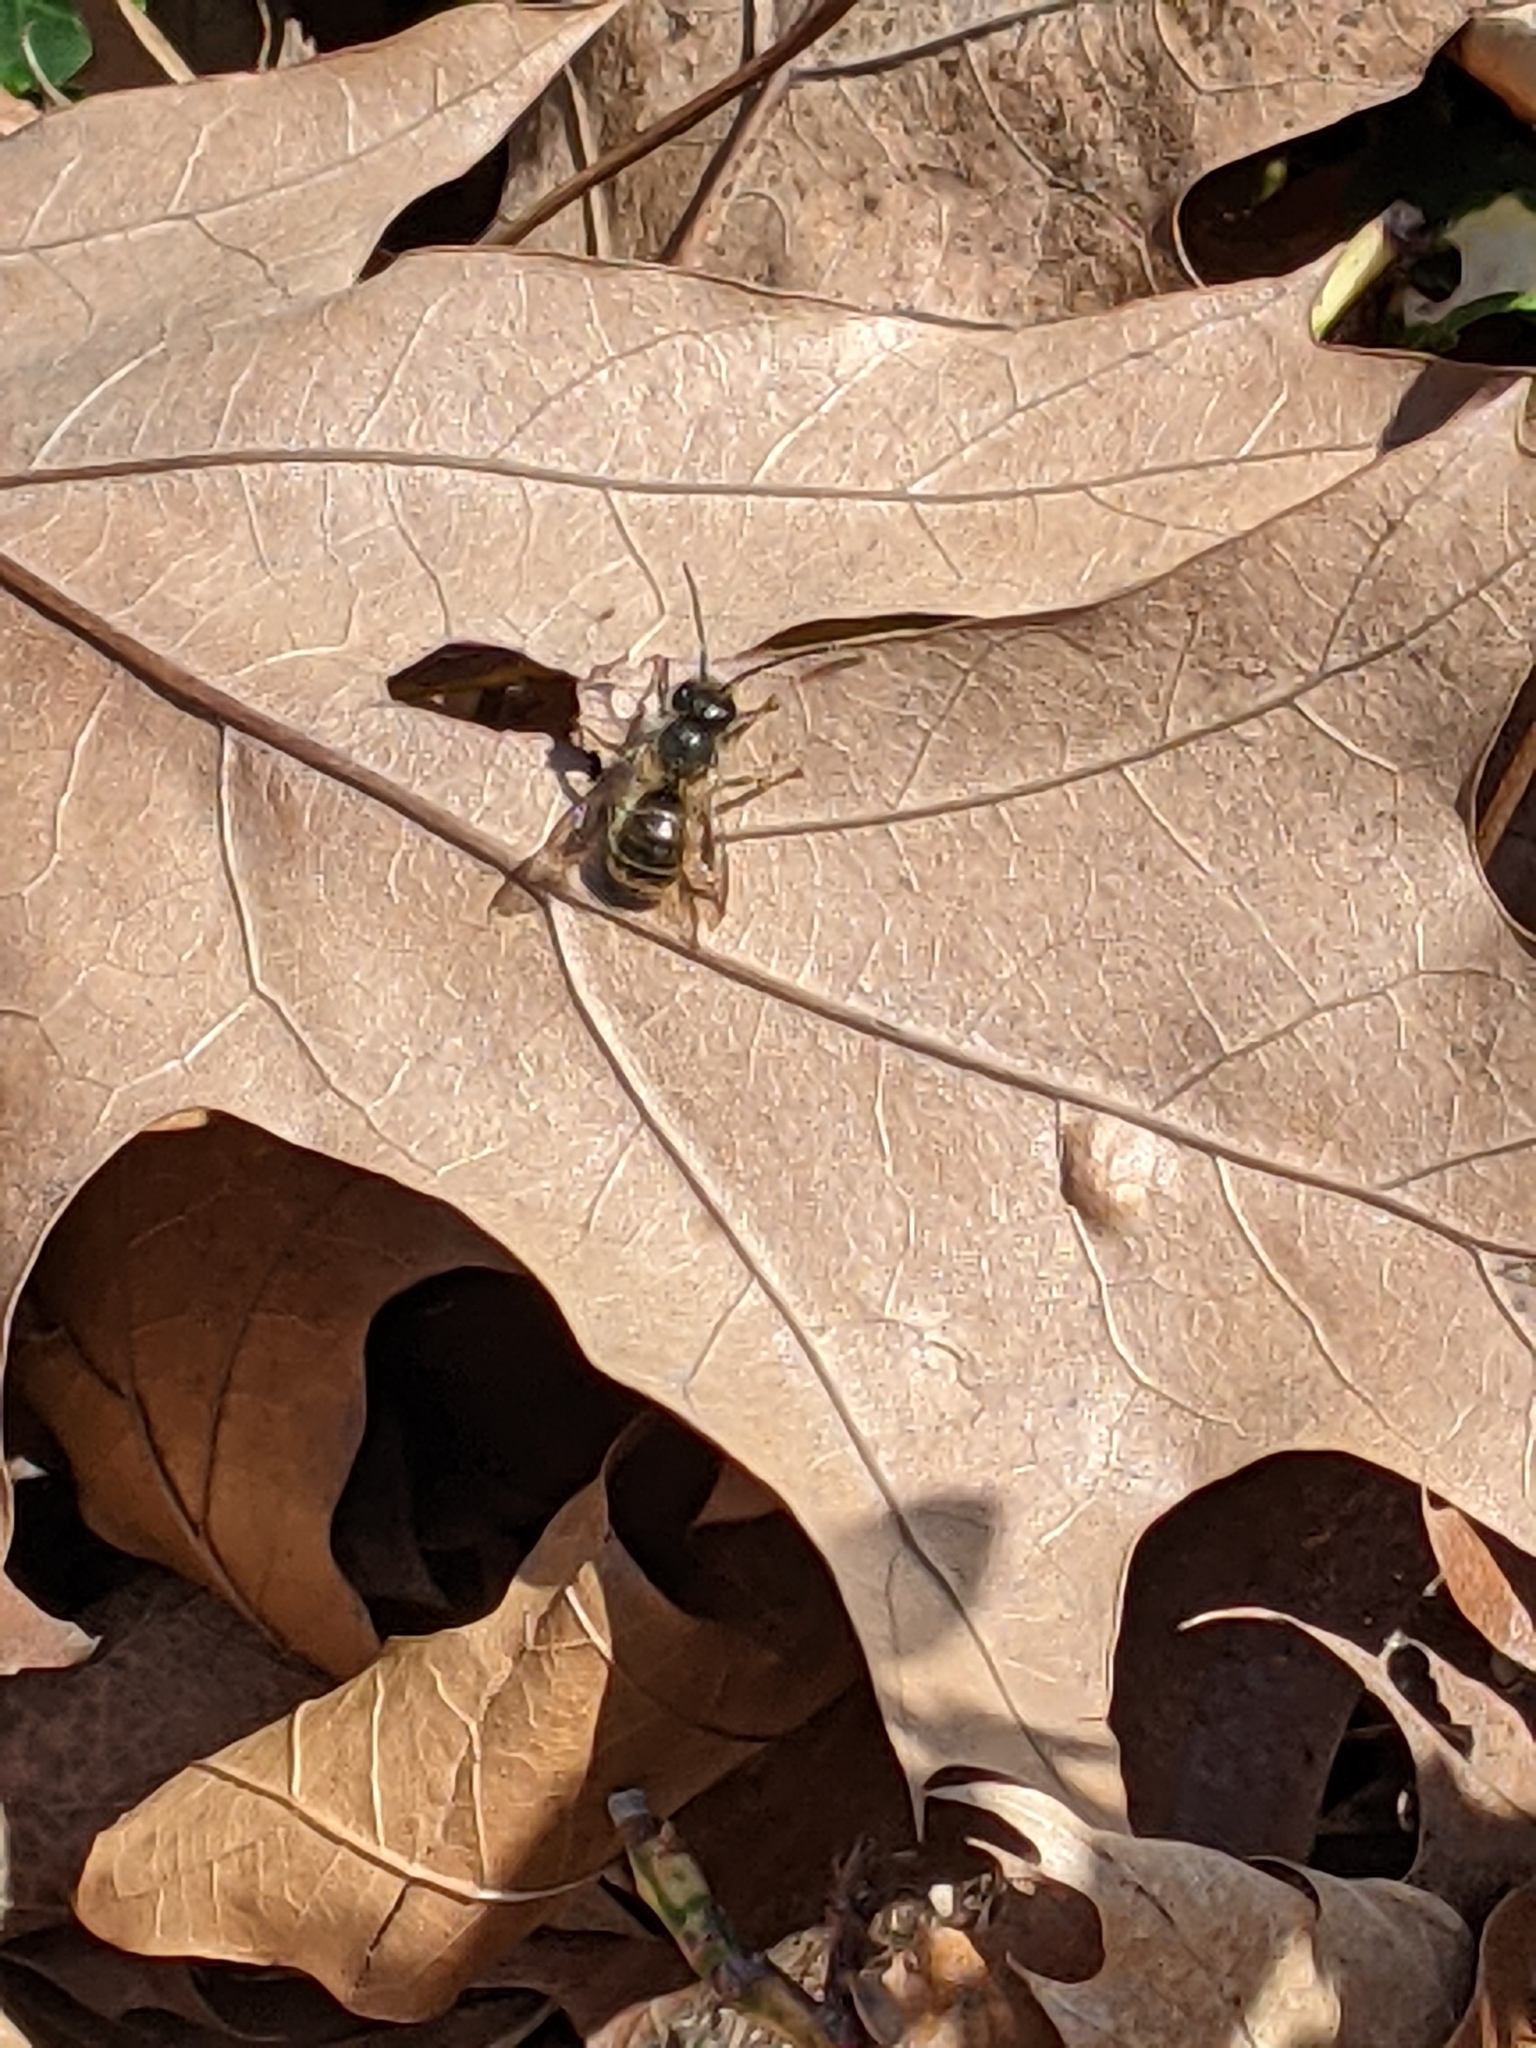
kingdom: Animalia
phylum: Arthropoda
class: Insecta
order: Hymenoptera
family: Megachilidae
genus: Osmia
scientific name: Osmia cornifrons
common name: Horn-faced bee
